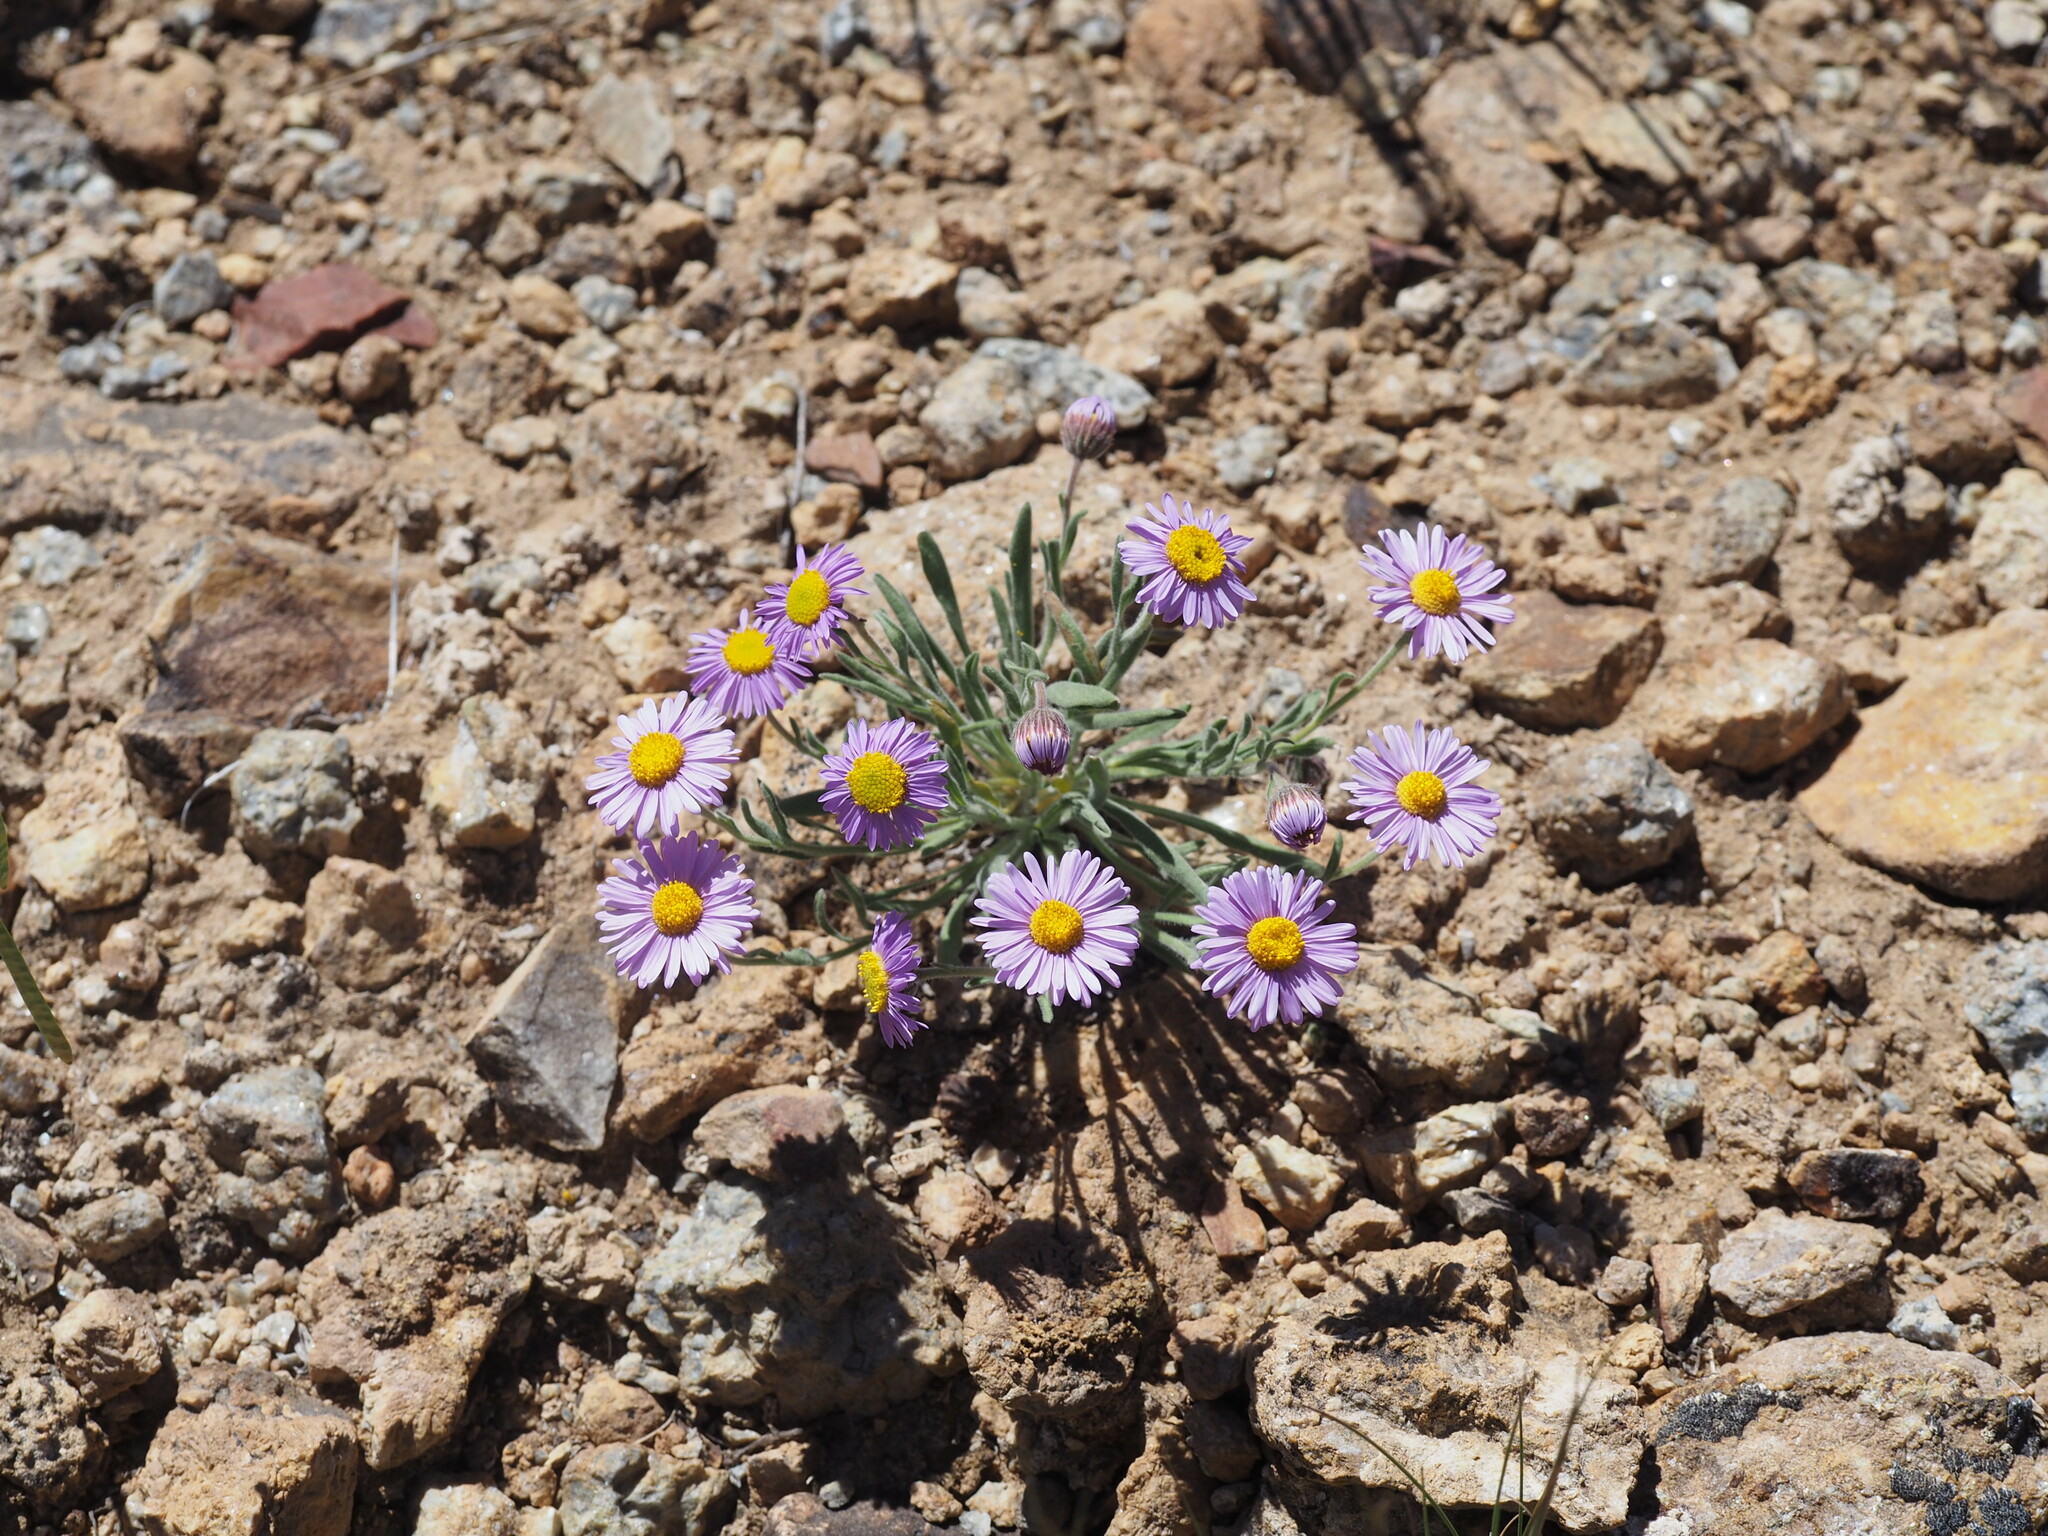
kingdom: Plantae
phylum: Tracheophyta
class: Magnoliopsida
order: Asterales
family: Asteraceae
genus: Erigeron
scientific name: Erigeron clokeyi
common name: Clokey's fleabane
